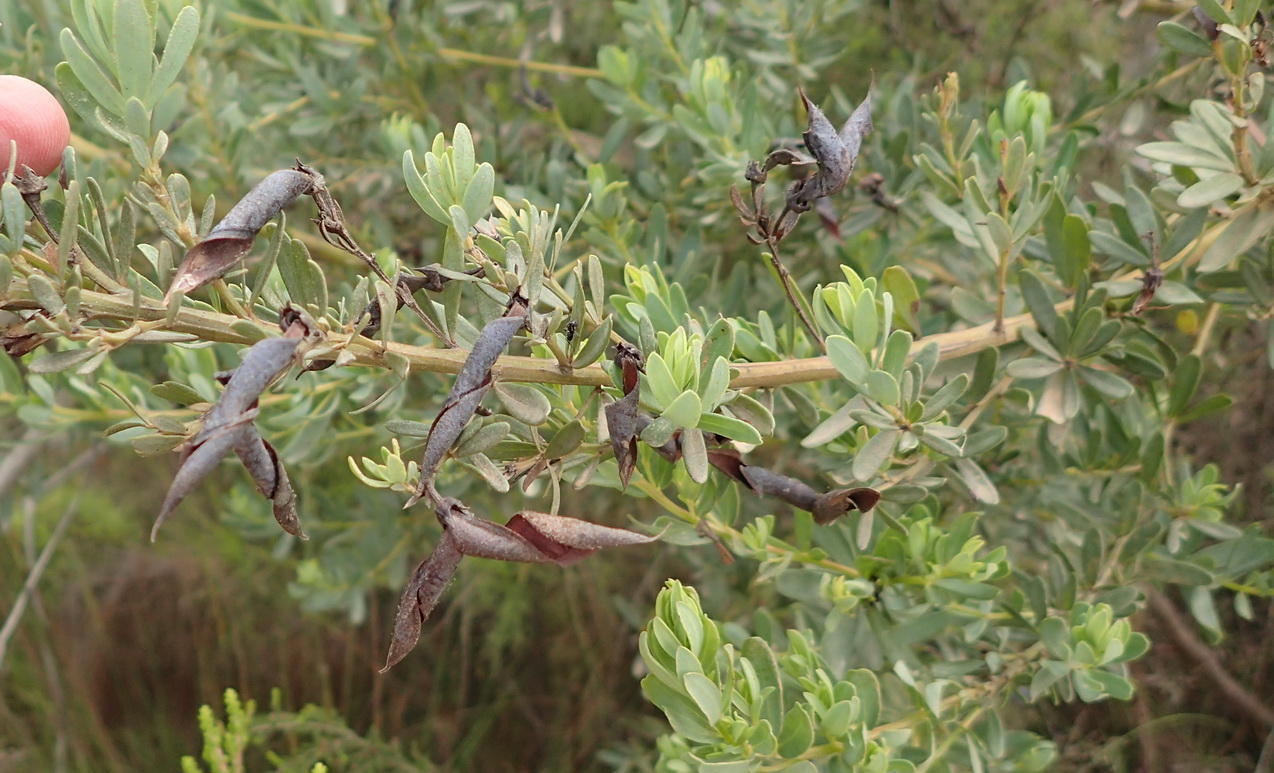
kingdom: Plantae
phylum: Tracheophyta
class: Magnoliopsida
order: Fabales
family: Fabaceae
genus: Cyclopia
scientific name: Cyclopia subternata
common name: Honeybush tea
